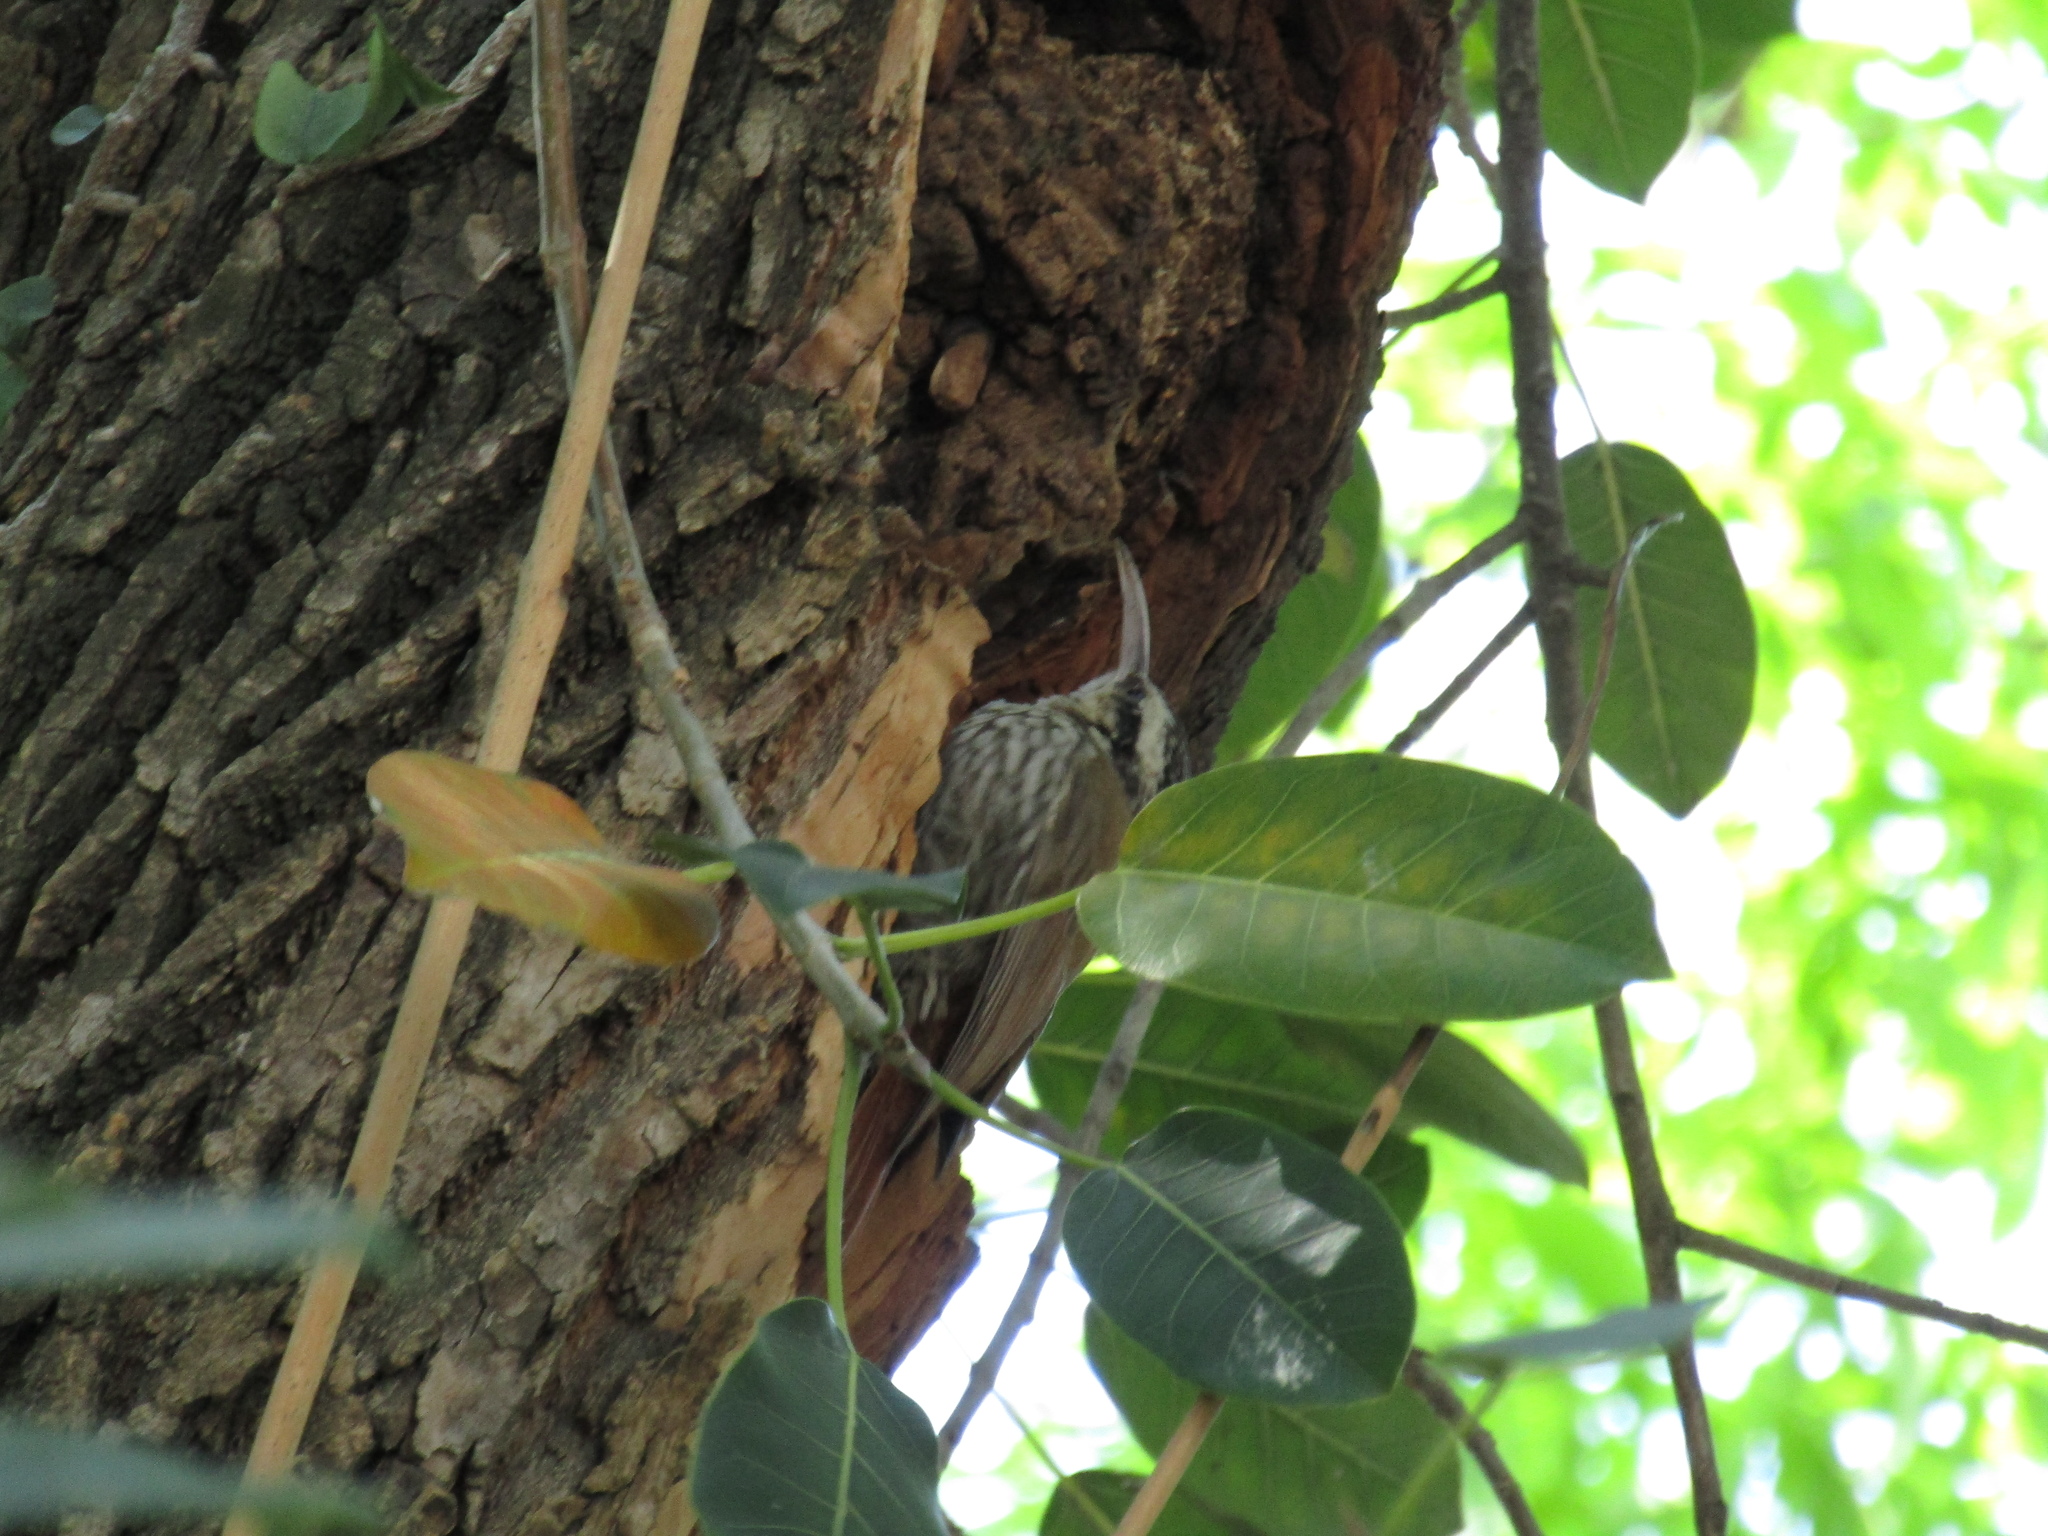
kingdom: Animalia
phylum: Chordata
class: Aves
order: Passeriformes
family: Furnariidae
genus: Lepidocolaptes
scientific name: Lepidocolaptes angustirostris
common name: Narrow-billed woodcreeper
